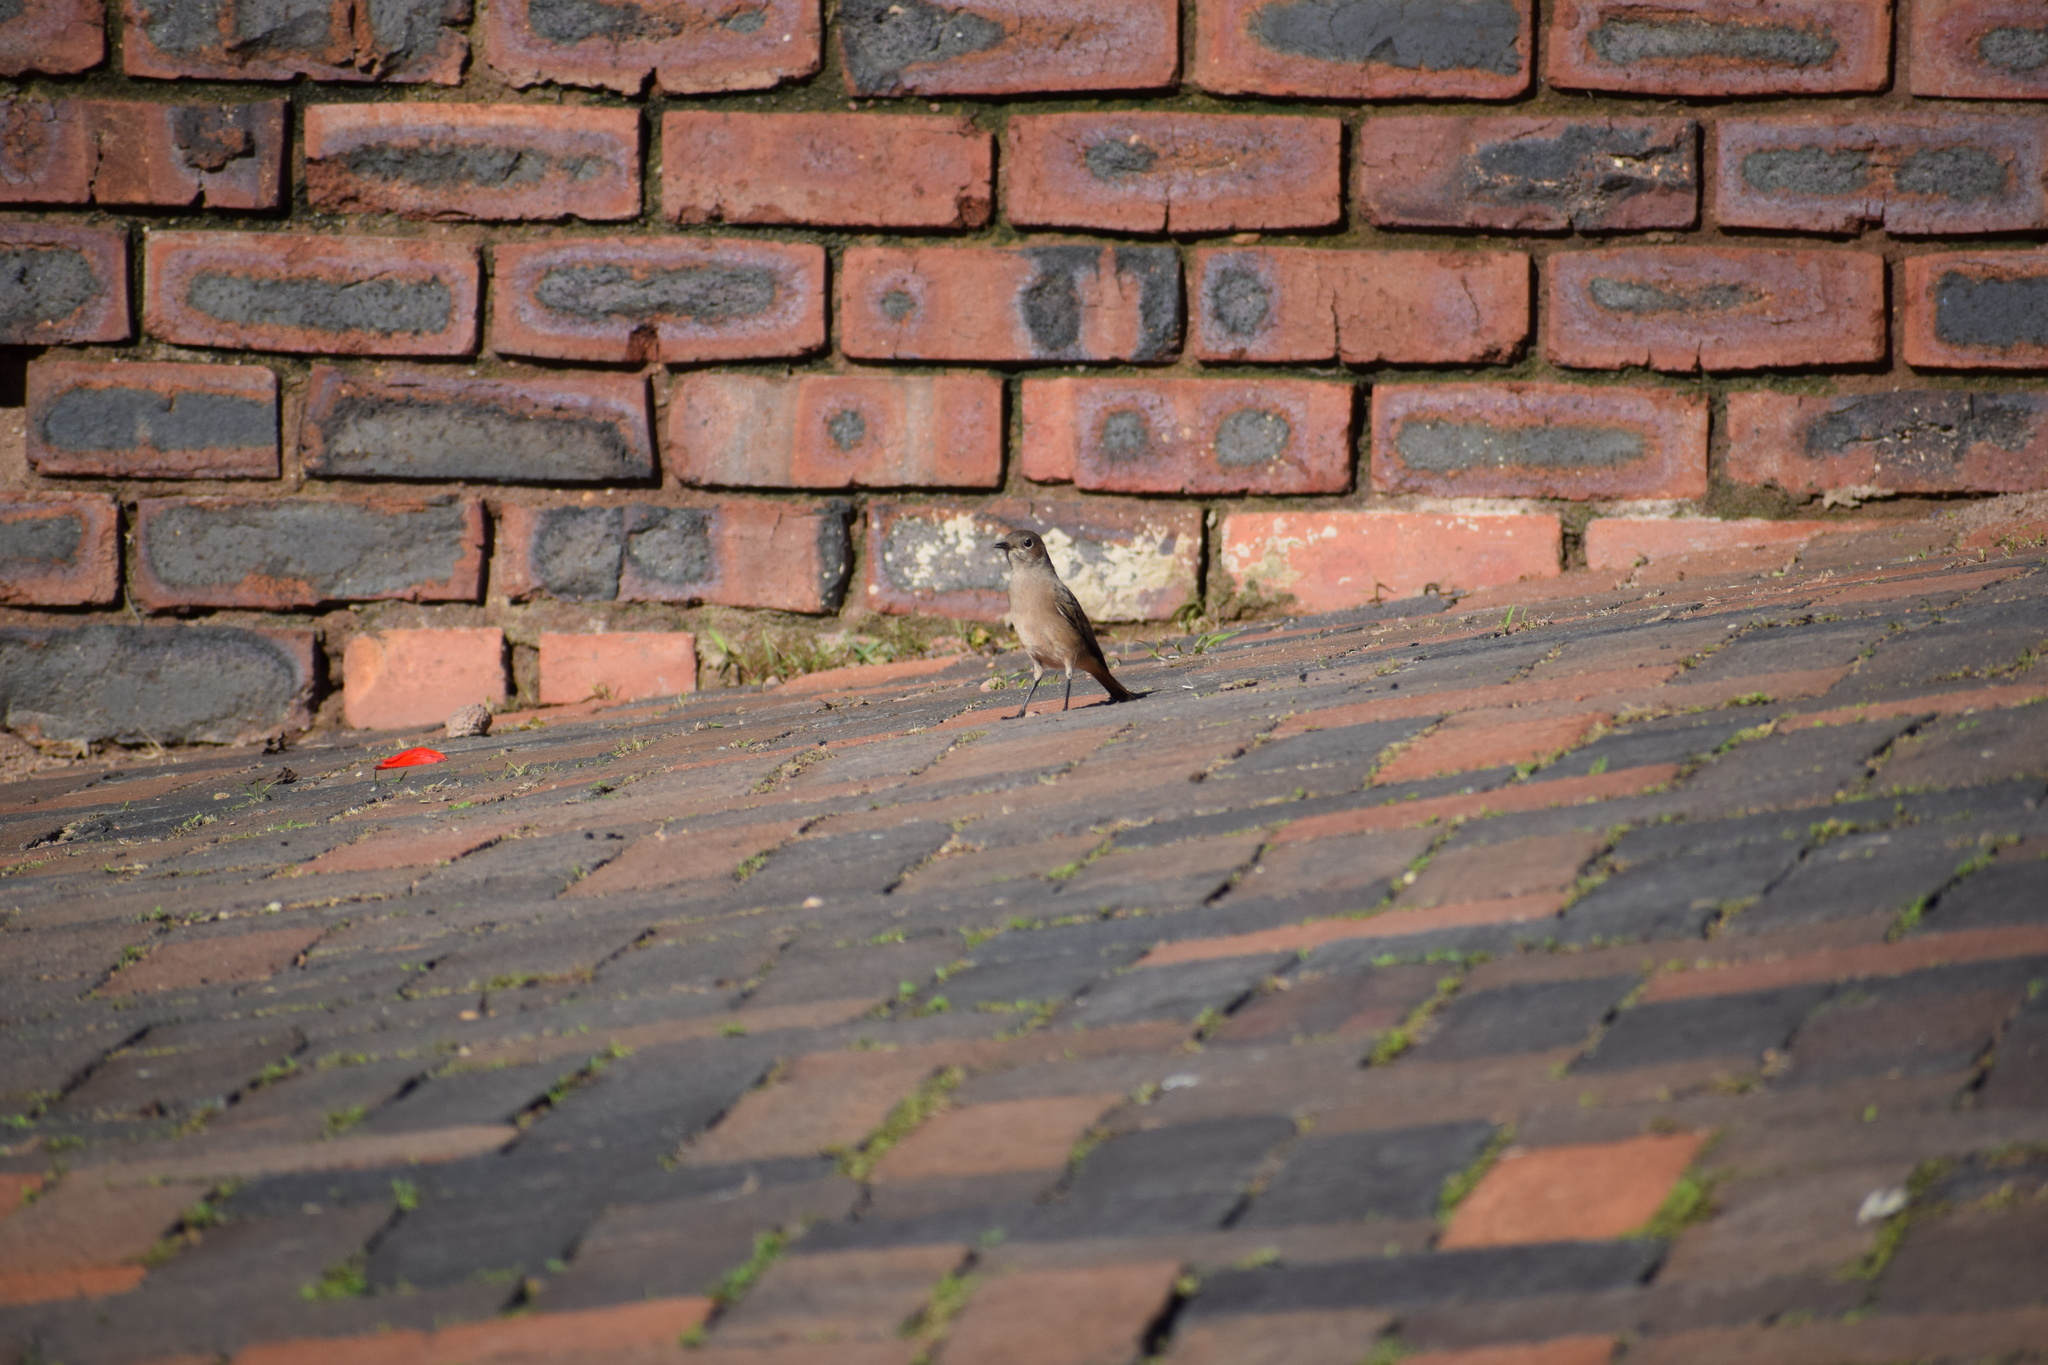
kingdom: Animalia
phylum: Chordata
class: Aves
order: Passeriformes
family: Muscicapidae
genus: Oenanthe
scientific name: Oenanthe familiaris
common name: Familiar chat
